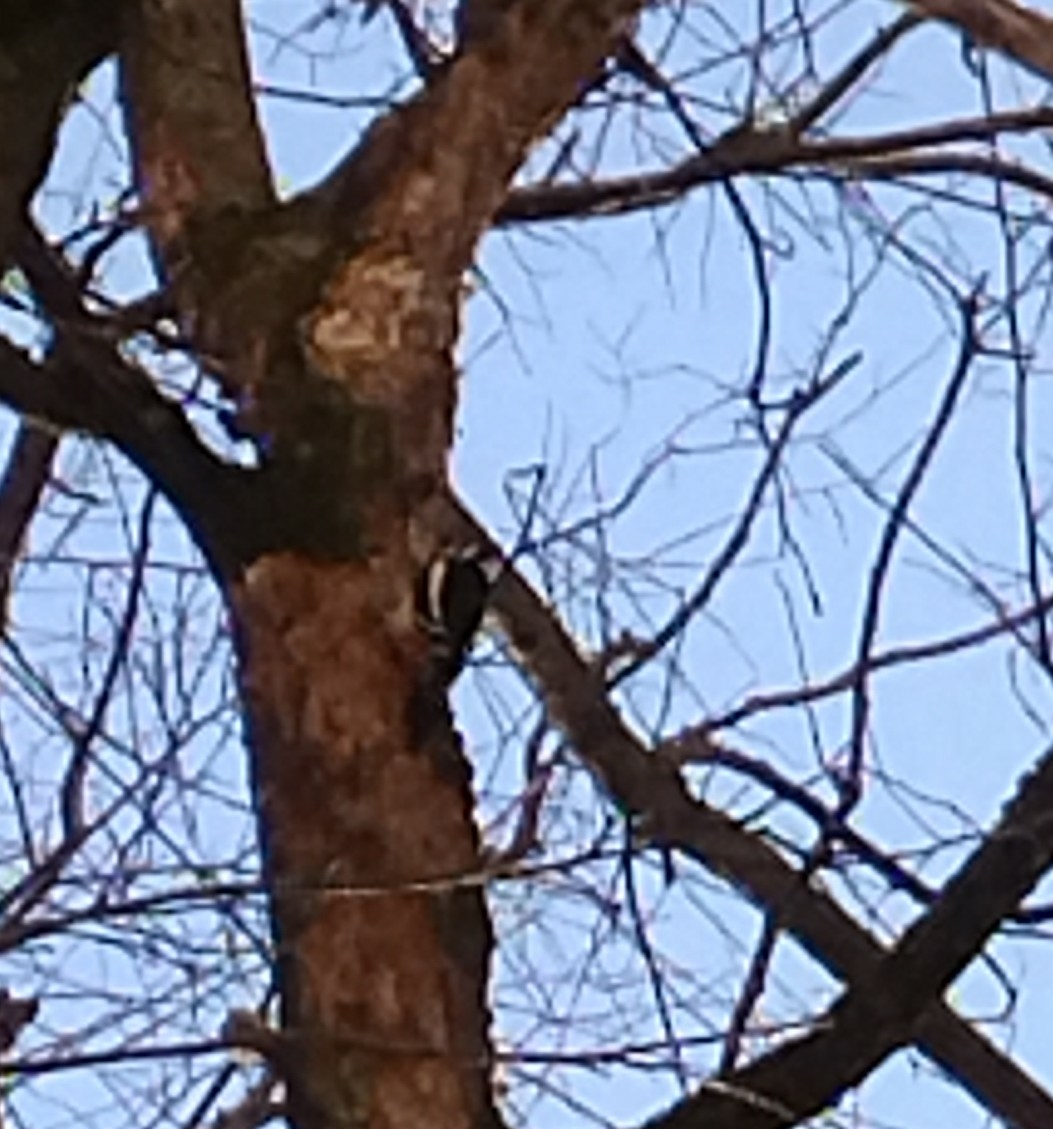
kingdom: Animalia
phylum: Chordata
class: Aves
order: Piciformes
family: Picidae
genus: Dendrocopos
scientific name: Dendrocopos major
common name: Great spotted woodpecker
